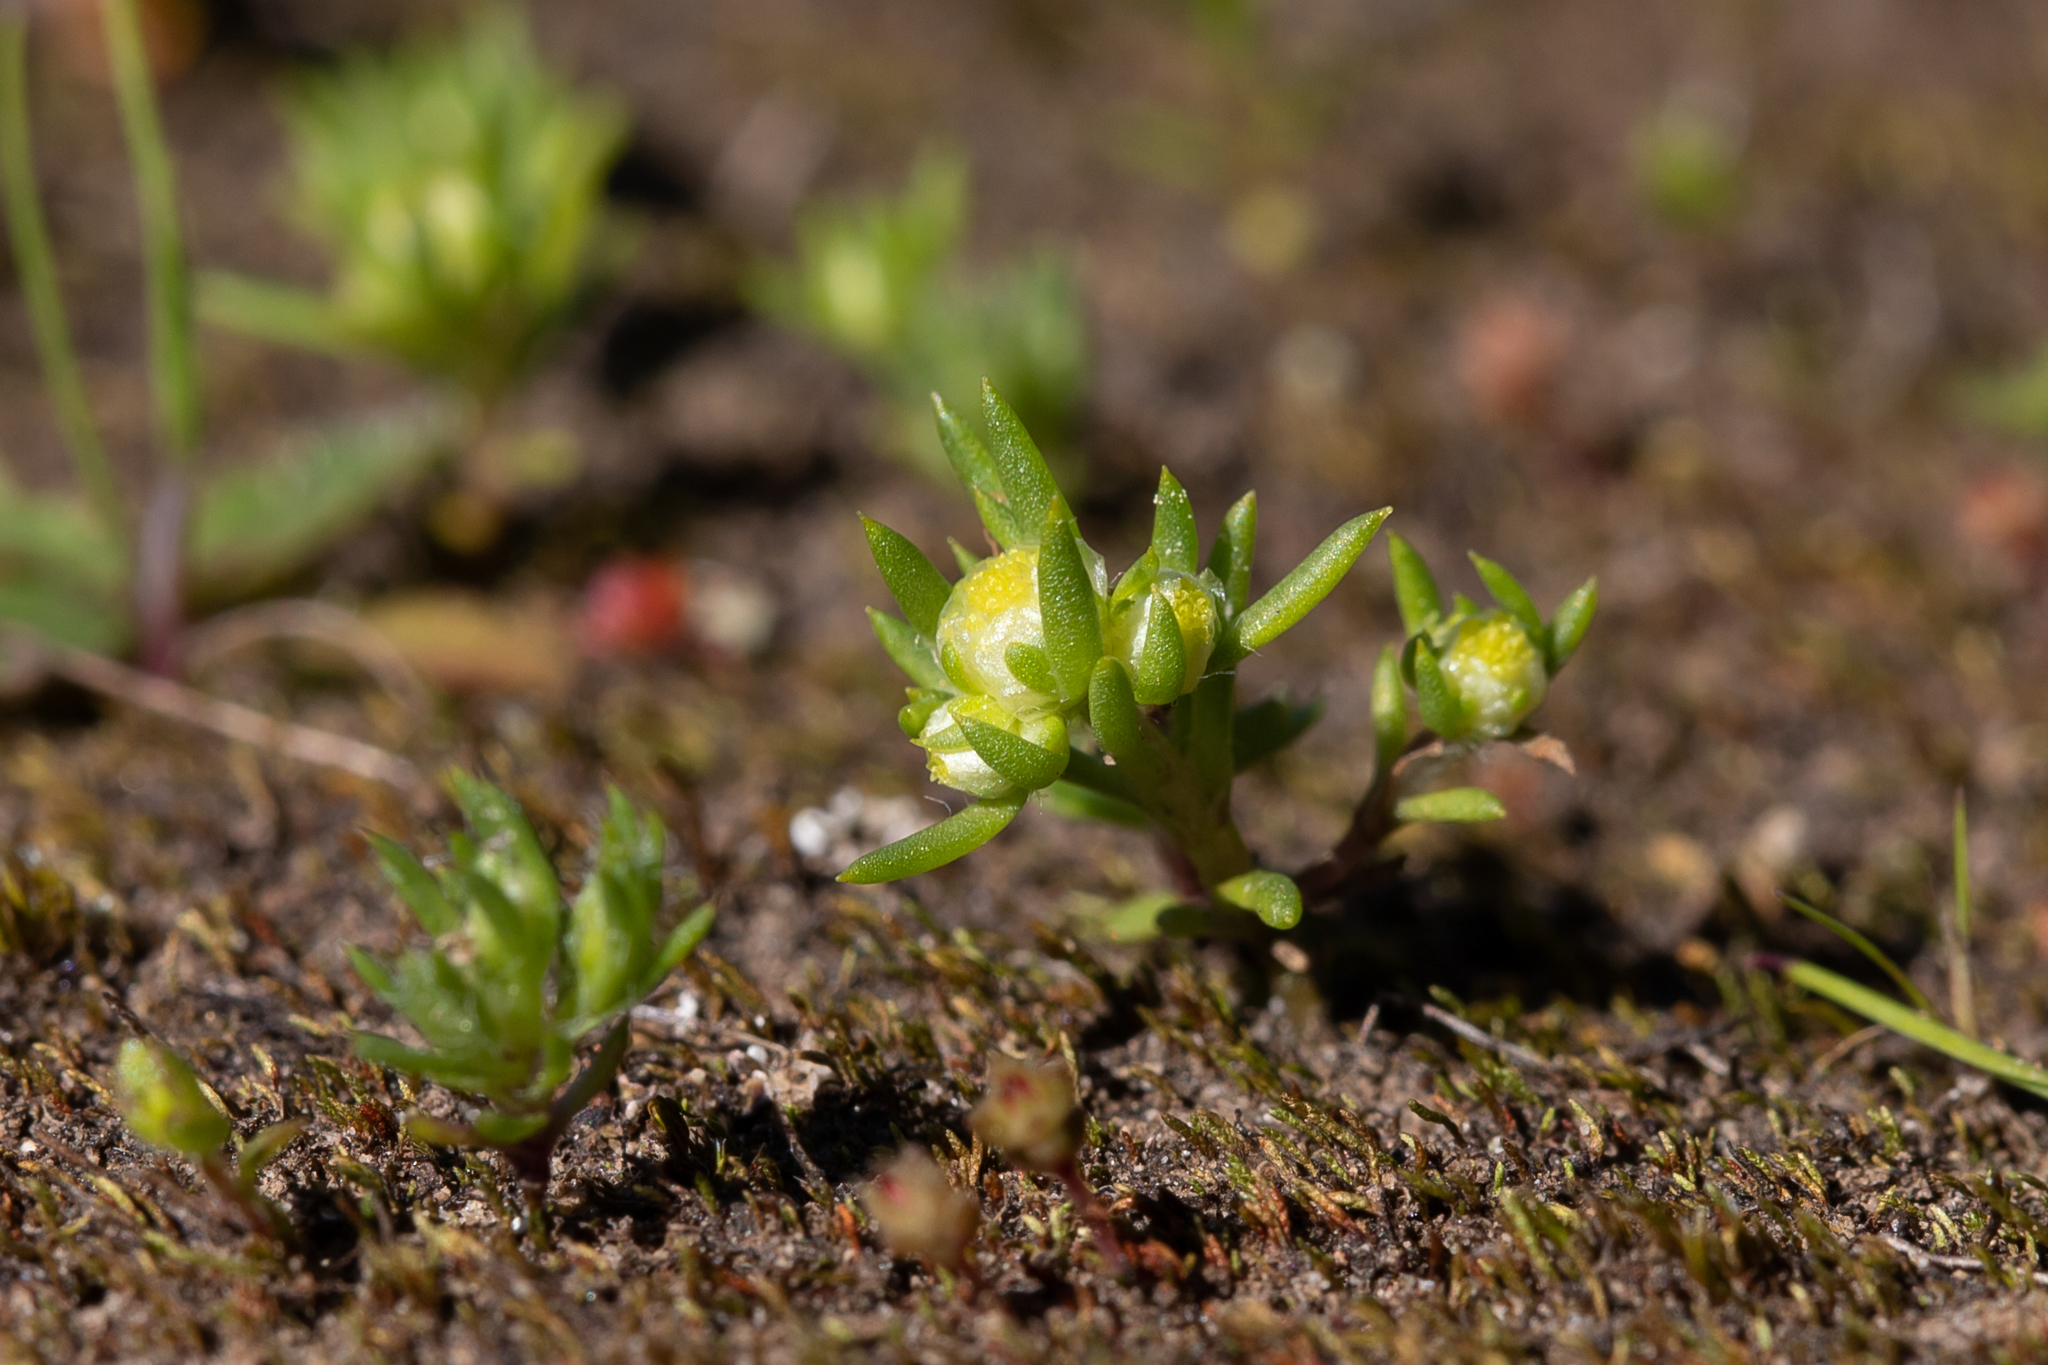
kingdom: Plantae
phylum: Tracheophyta
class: Magnoliopsida
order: Asterales
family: Asteraceae
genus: Siloxerus
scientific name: Siloxerus multiflorus
